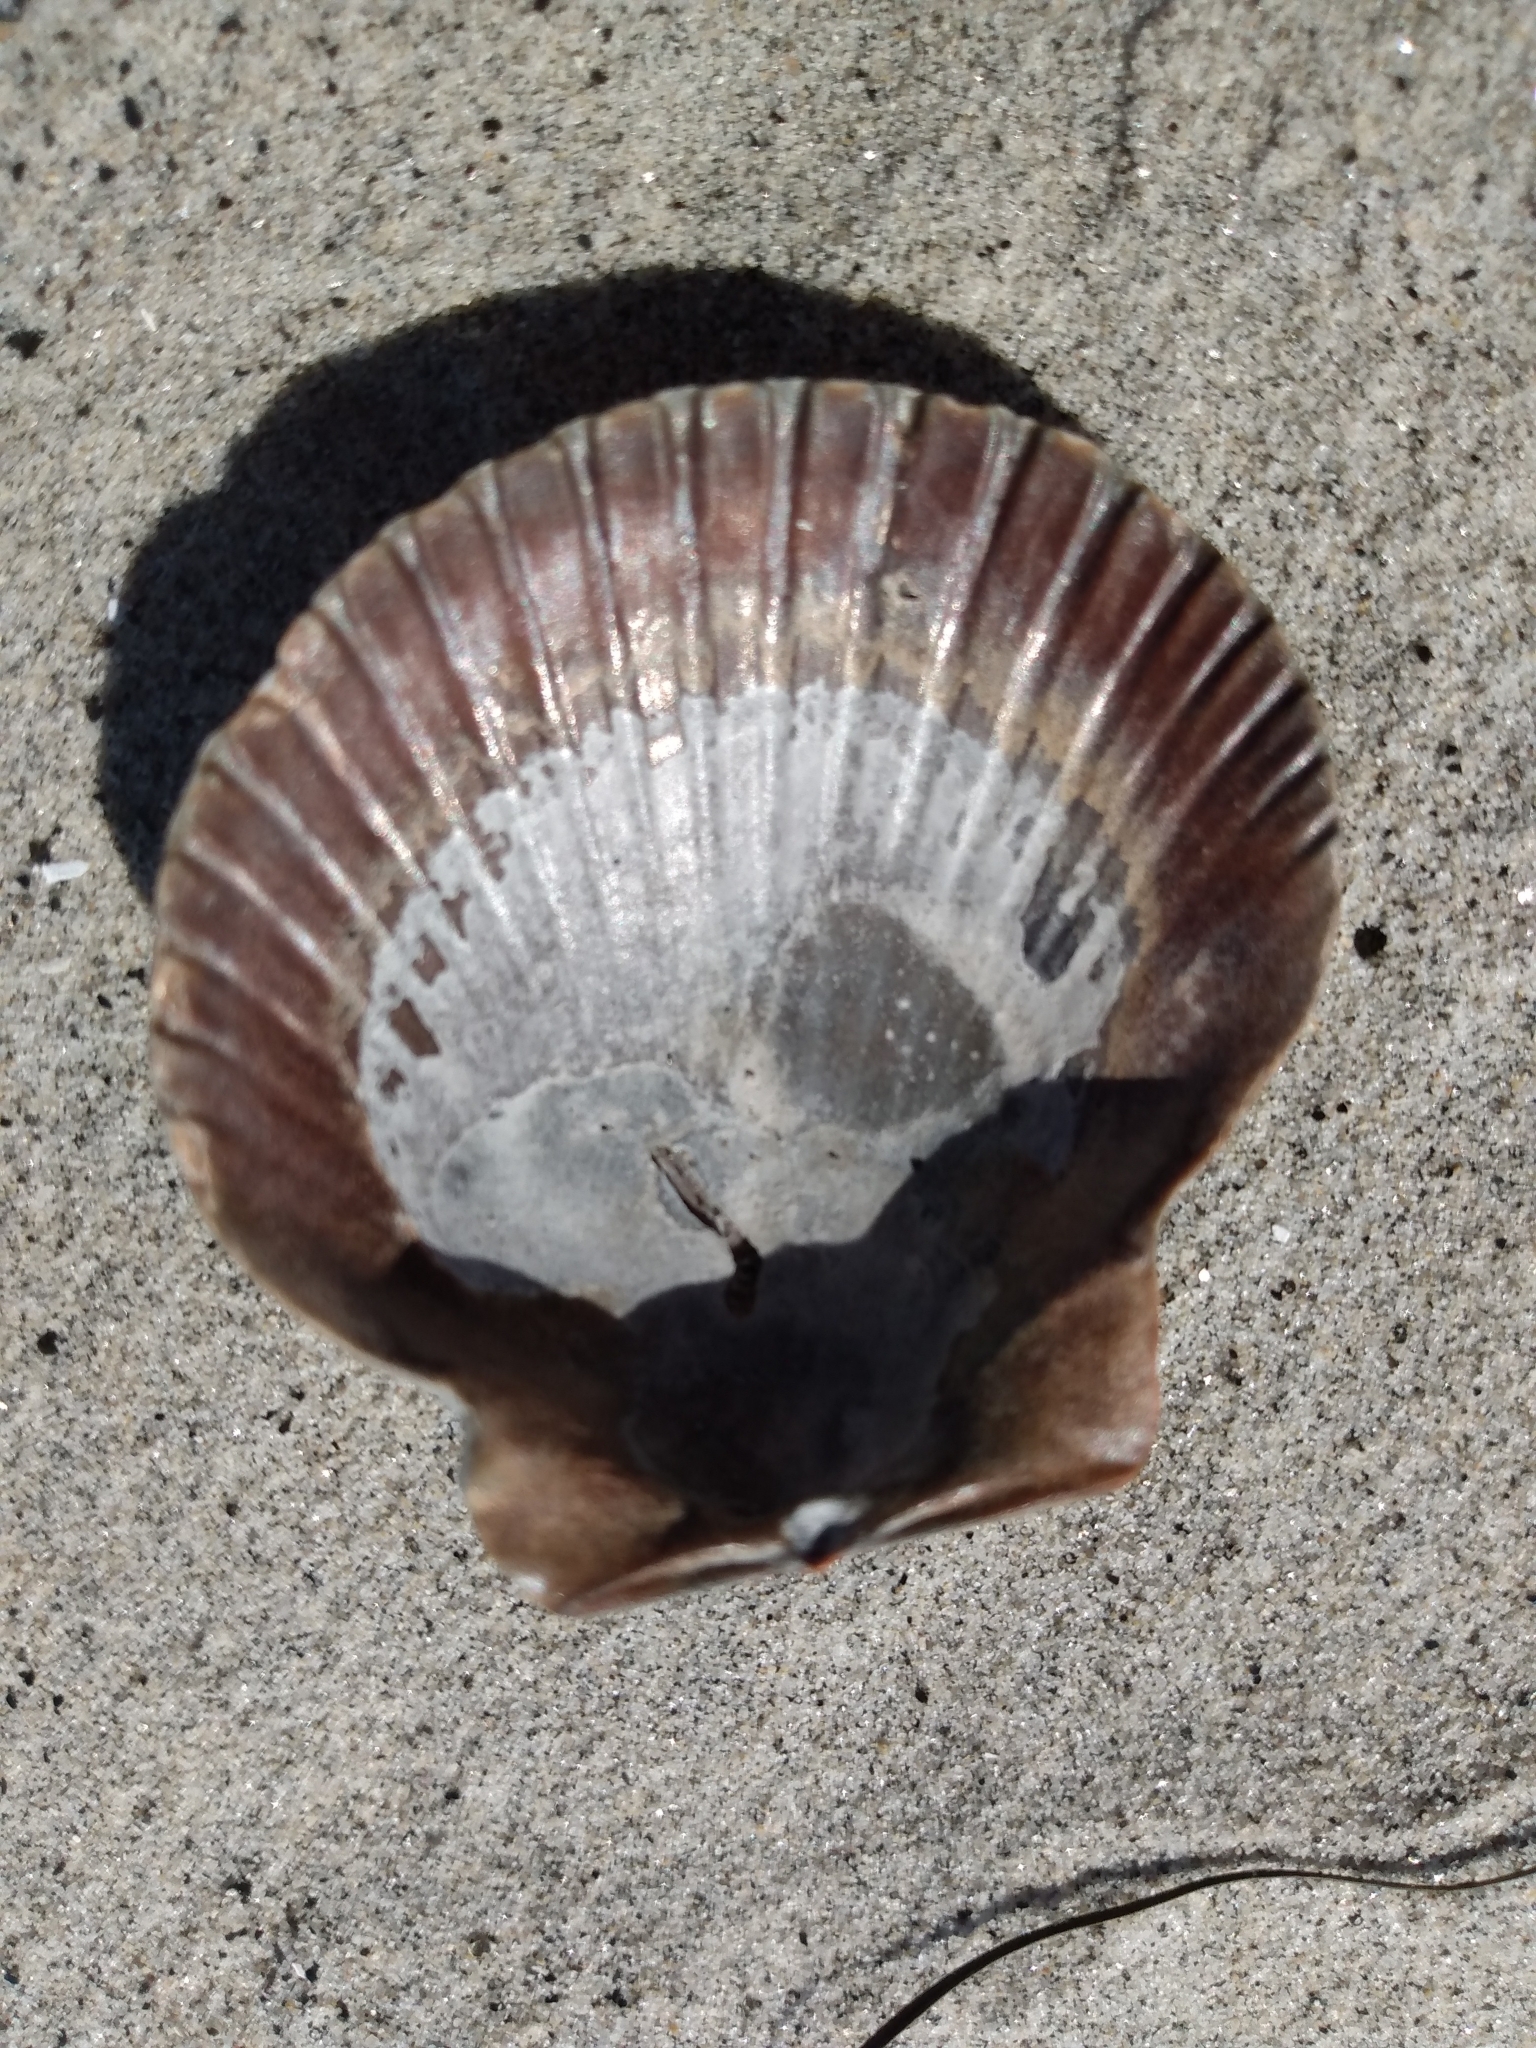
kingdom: Animalia
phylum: Mollusca
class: Bivalvia
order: Pectinida
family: Pectinidae
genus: Argopecten
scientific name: Argopecten ventricosus
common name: Catarina scallop
